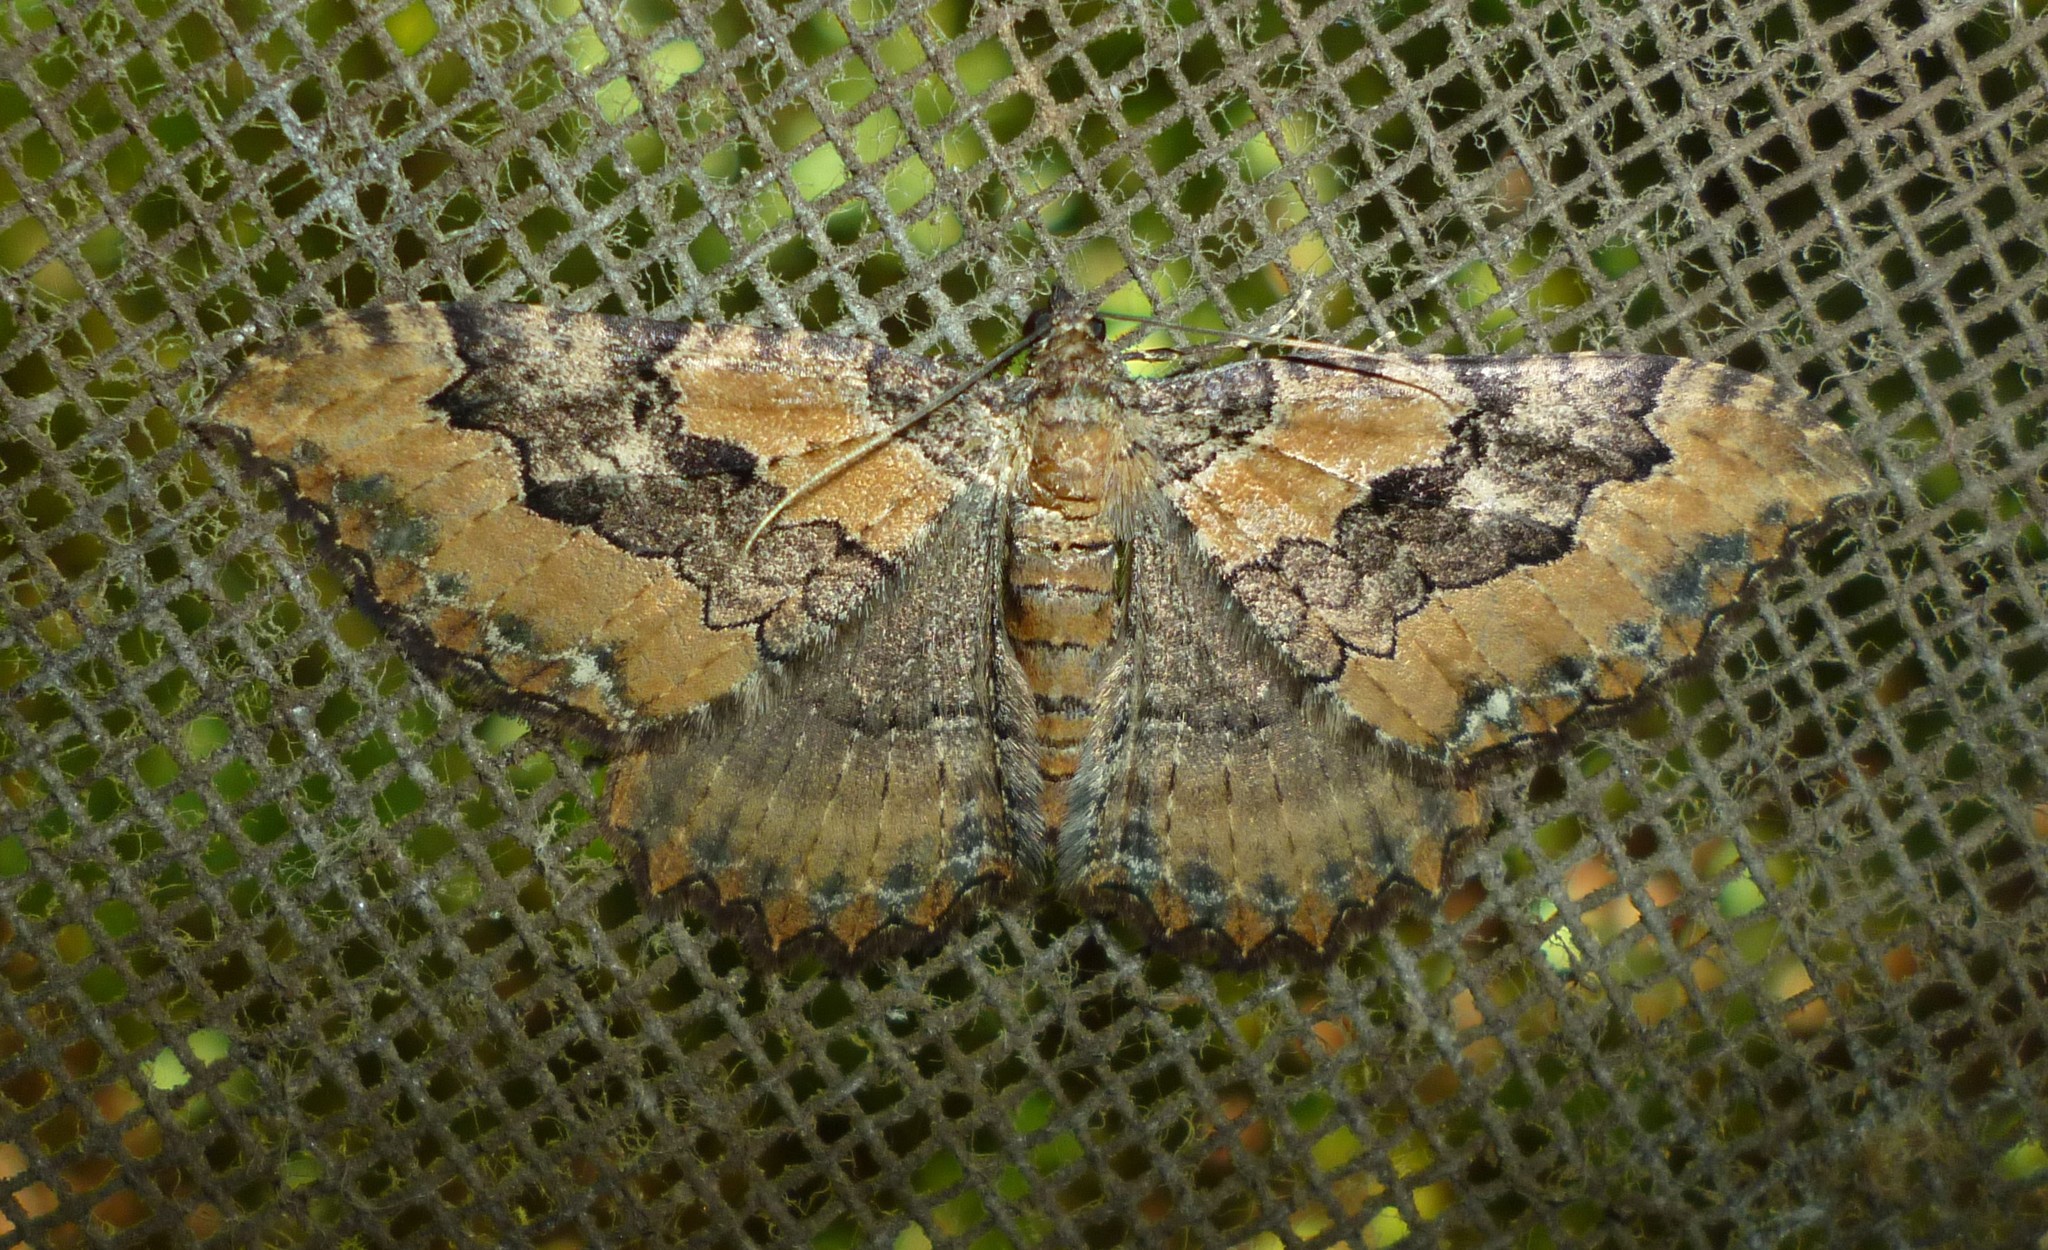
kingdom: Animalia
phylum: Arthropoda
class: Insecta
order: Lepidoptera
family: Geometridae
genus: Rheumaptera
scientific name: Rheumaptera
